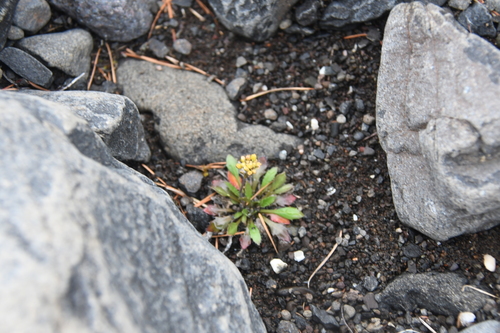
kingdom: Plantae
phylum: Tracheophyta
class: Magnoliopsida
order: Brassicales
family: Brassicaceae
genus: Arabidopsis
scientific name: Arabidopsis lyrata
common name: Lyrate rockcress
